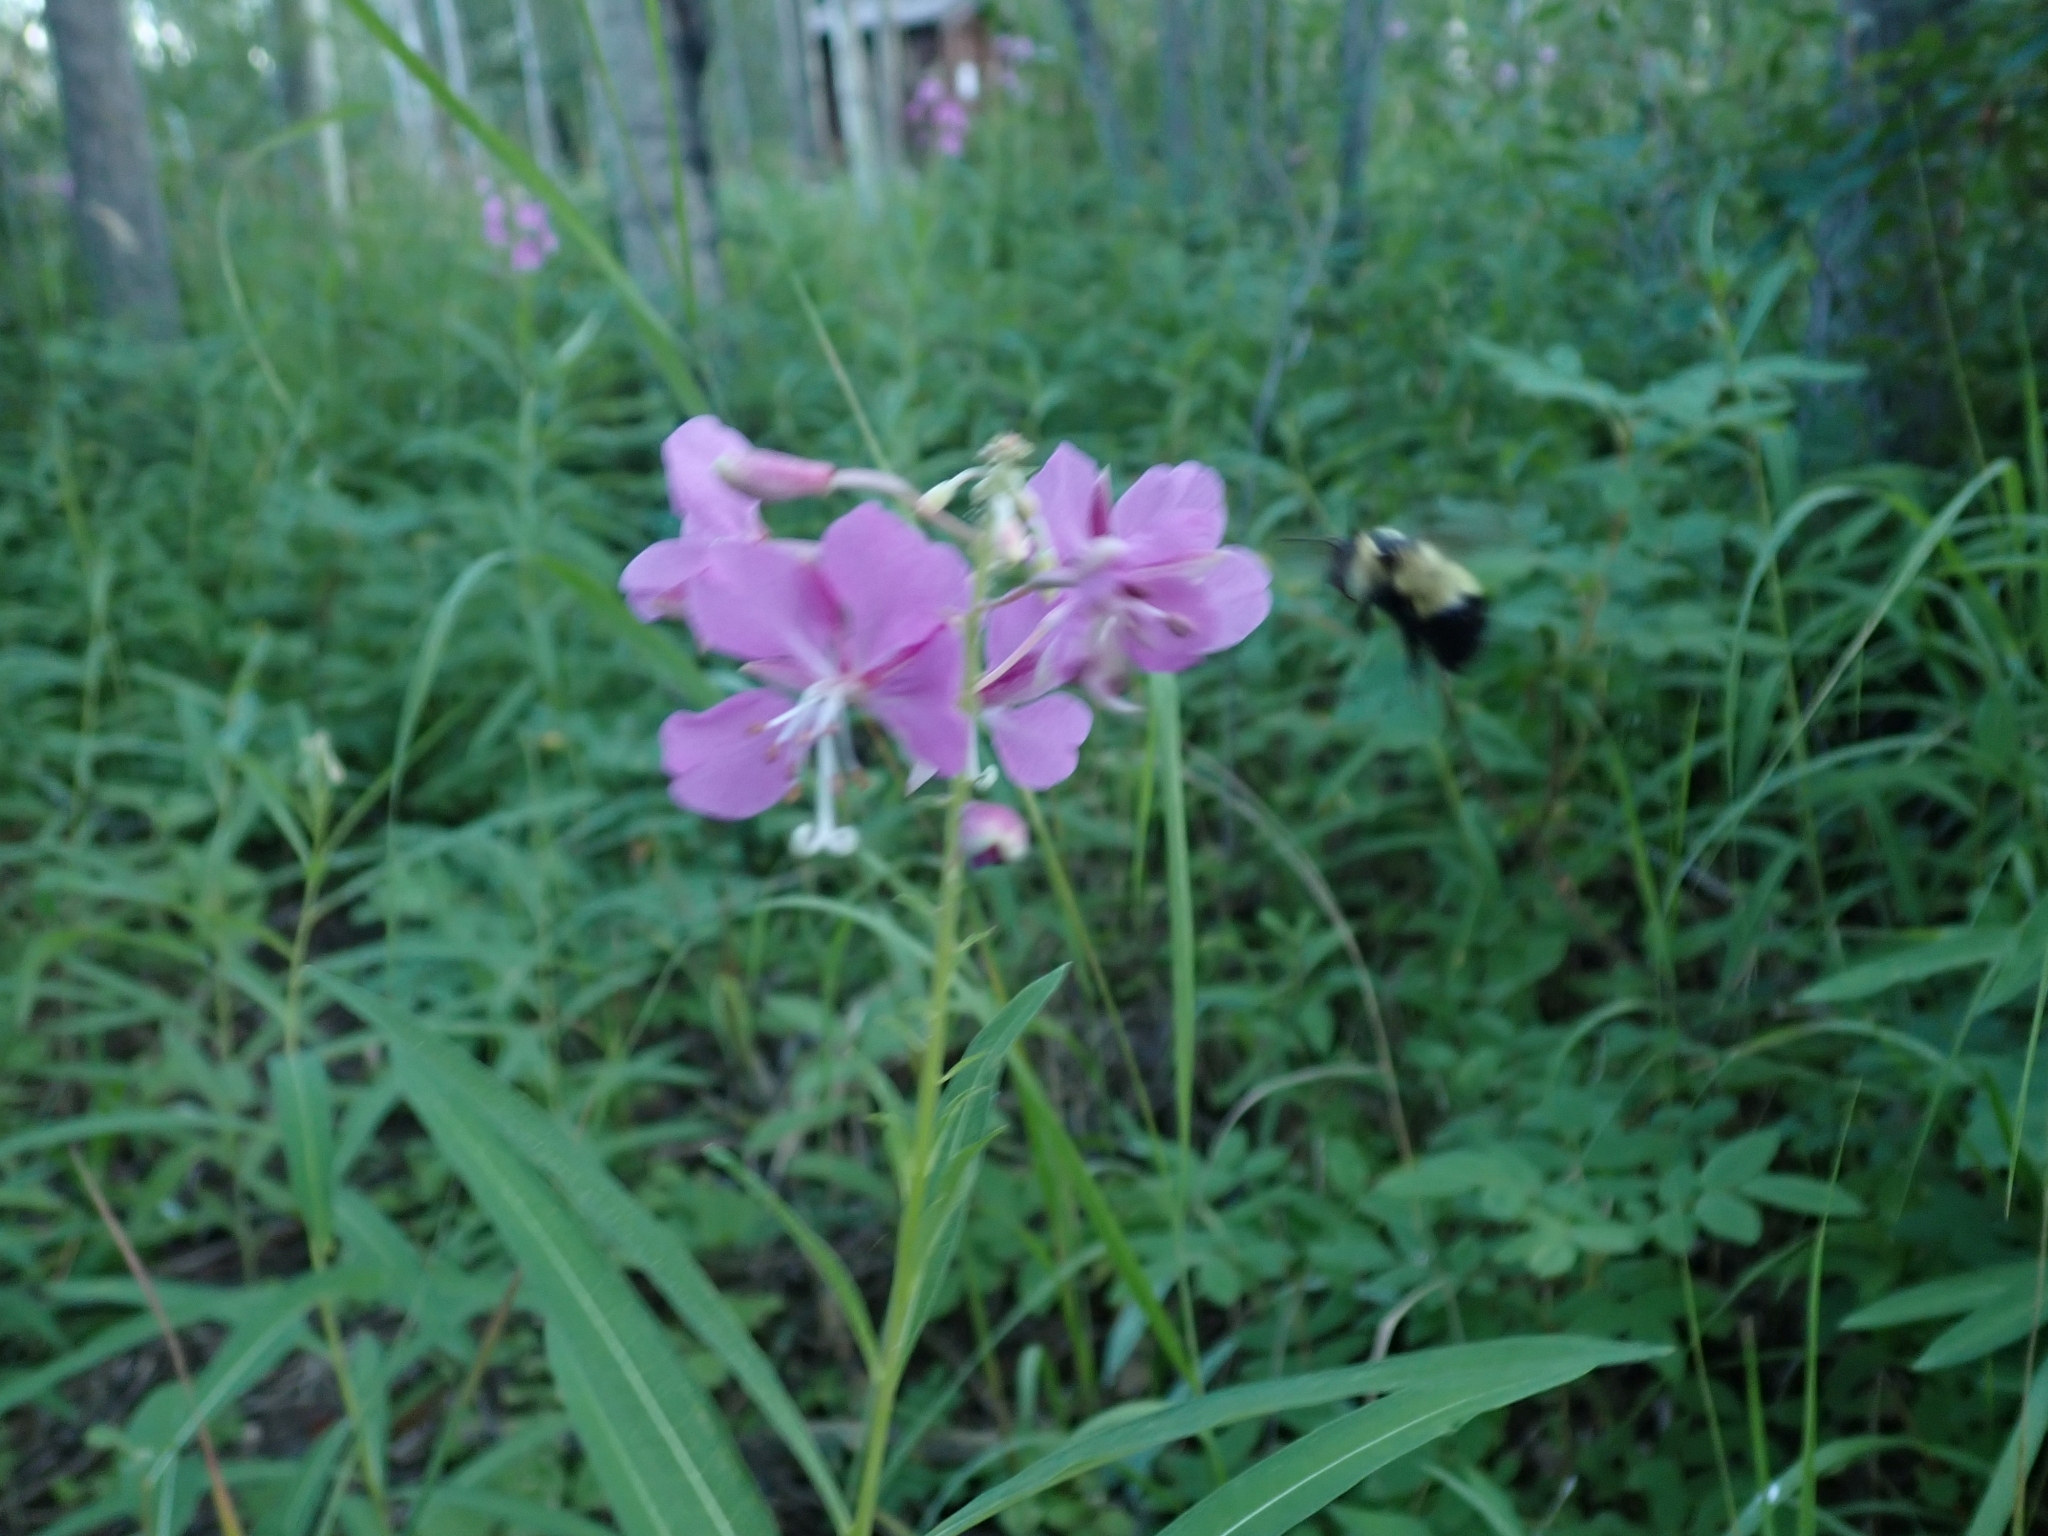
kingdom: Animalia
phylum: Arthropoda
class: Insecta
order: Hymenoptera
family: Apidae
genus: Bombus
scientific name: Bombus vagans
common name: Half-black bumble bee
